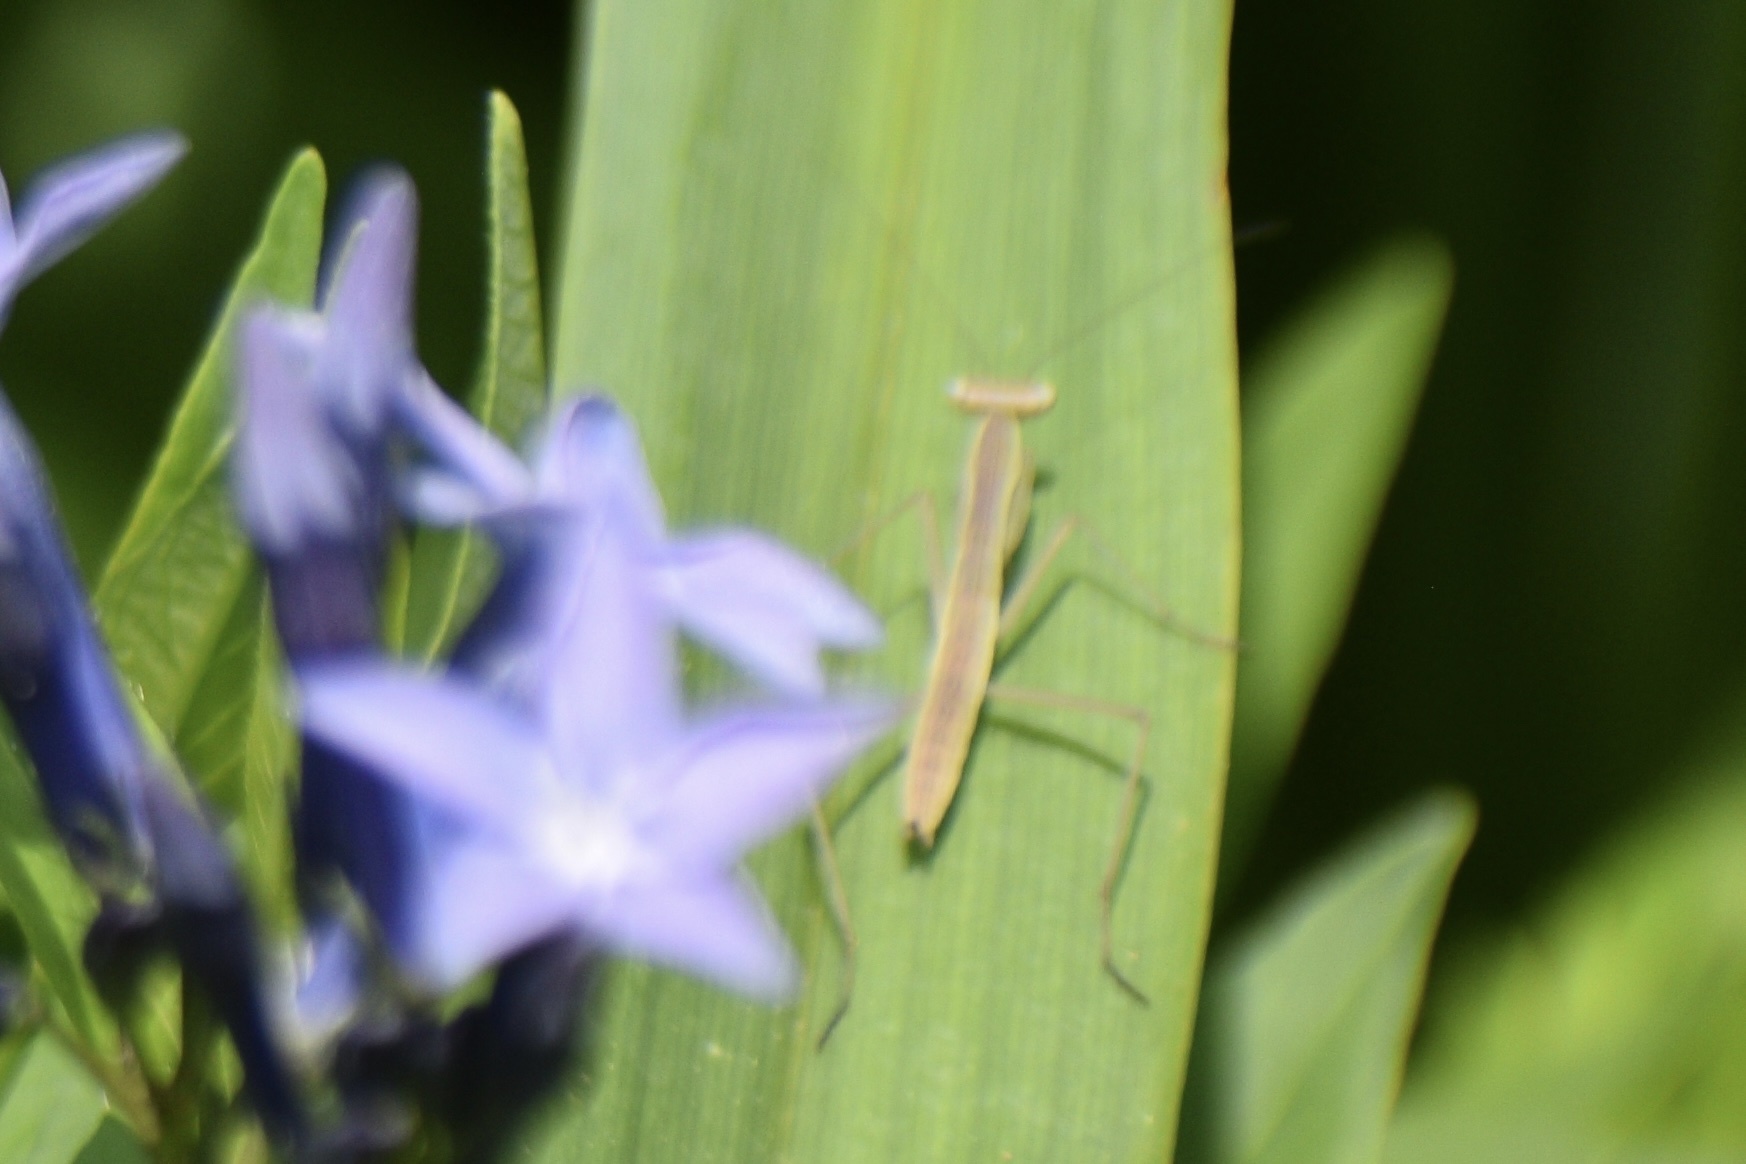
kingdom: Animalia
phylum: Arthropoda
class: Insecta
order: Mantodea
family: Mantidae
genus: Tenodera
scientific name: Tenodera sinensis
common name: Chinese mantis
